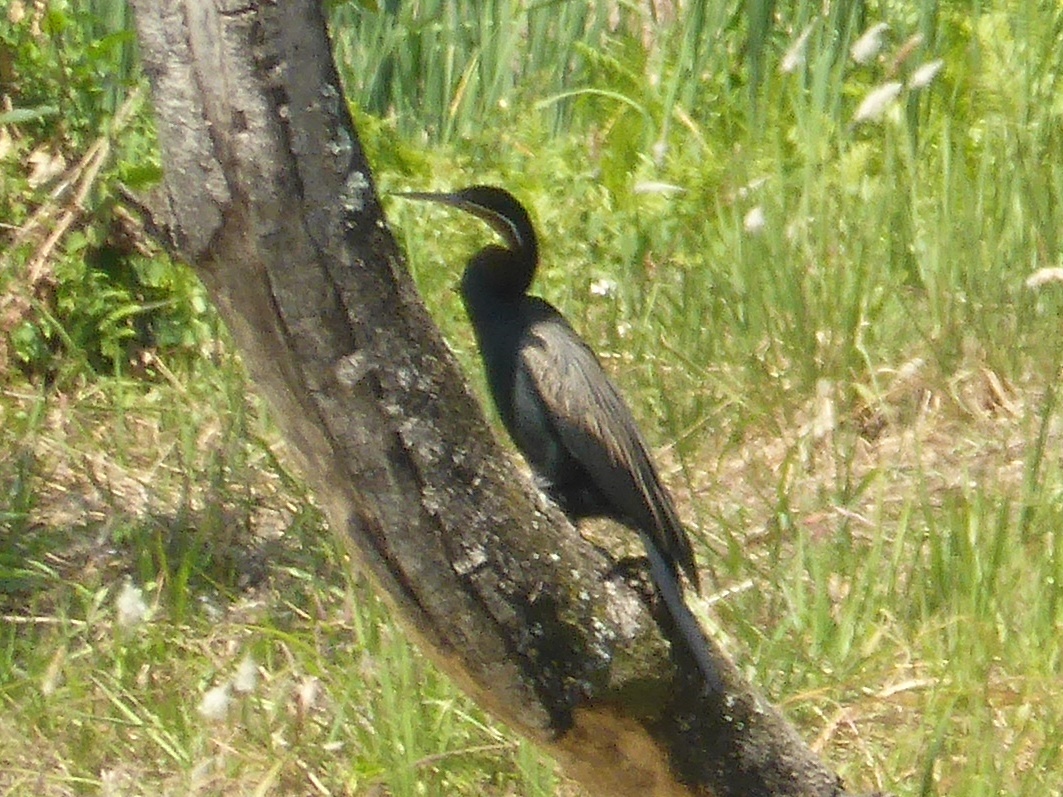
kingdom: Animalia
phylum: Chordata
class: Aves
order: Suliformes
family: Anhingidae
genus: Anhinga
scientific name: Anhinga rufa
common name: African darter
